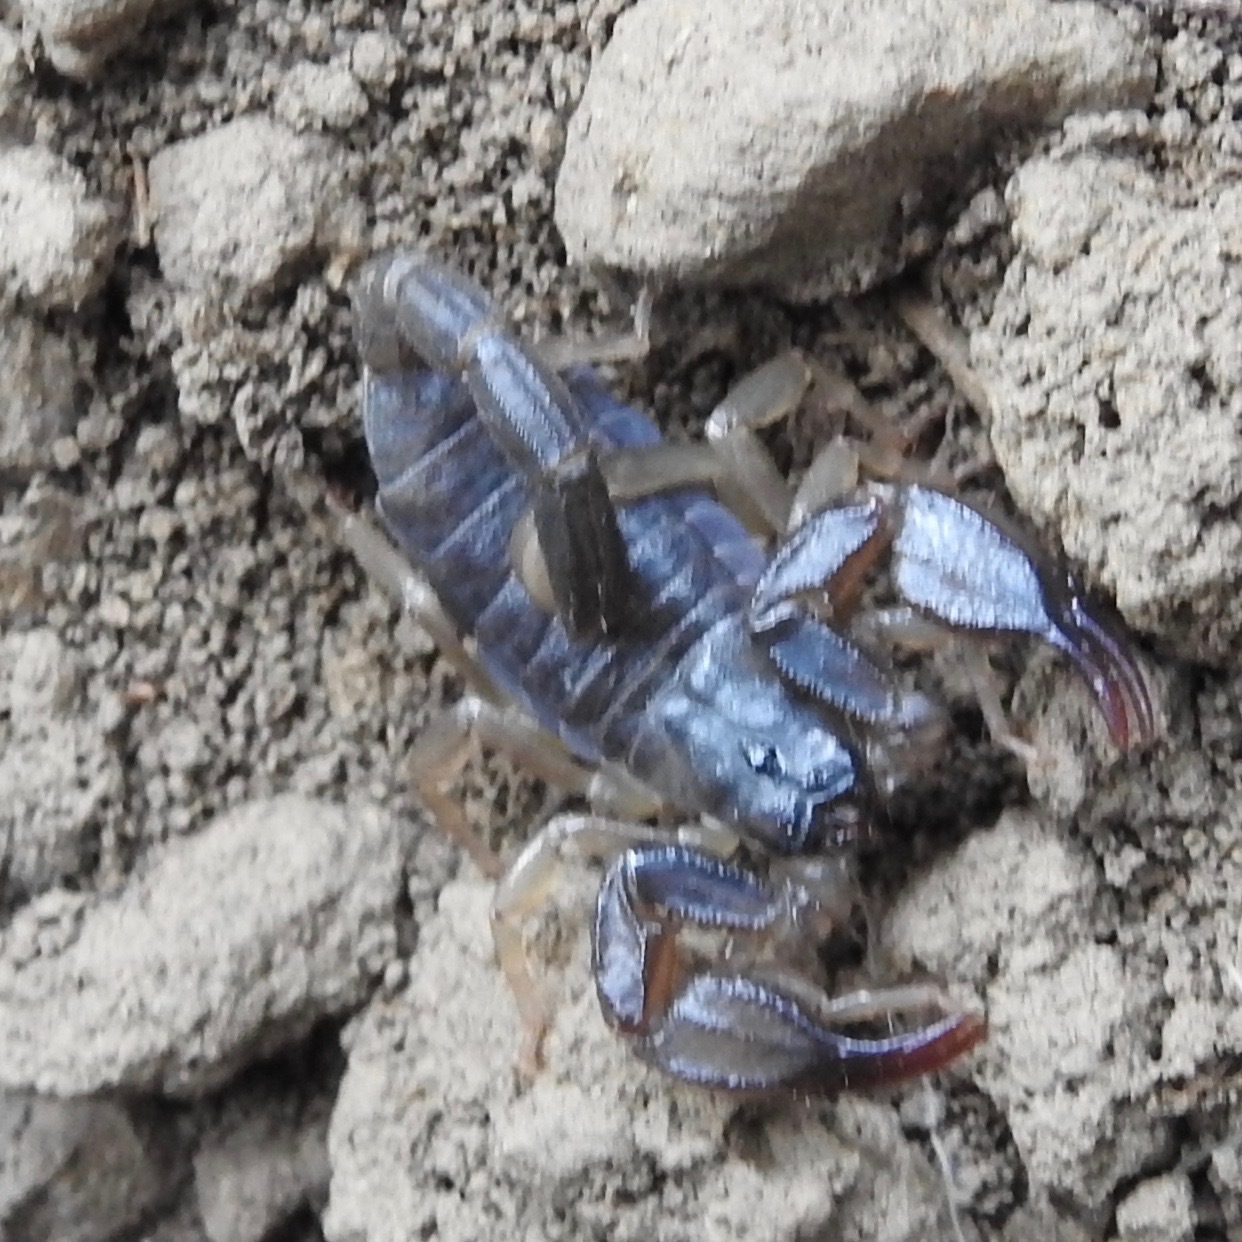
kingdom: Animalia
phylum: Arthropoda
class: Arachnida
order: Scorpiones
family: Chactidae
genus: Uroctonus
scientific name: Uroctonus mordax
